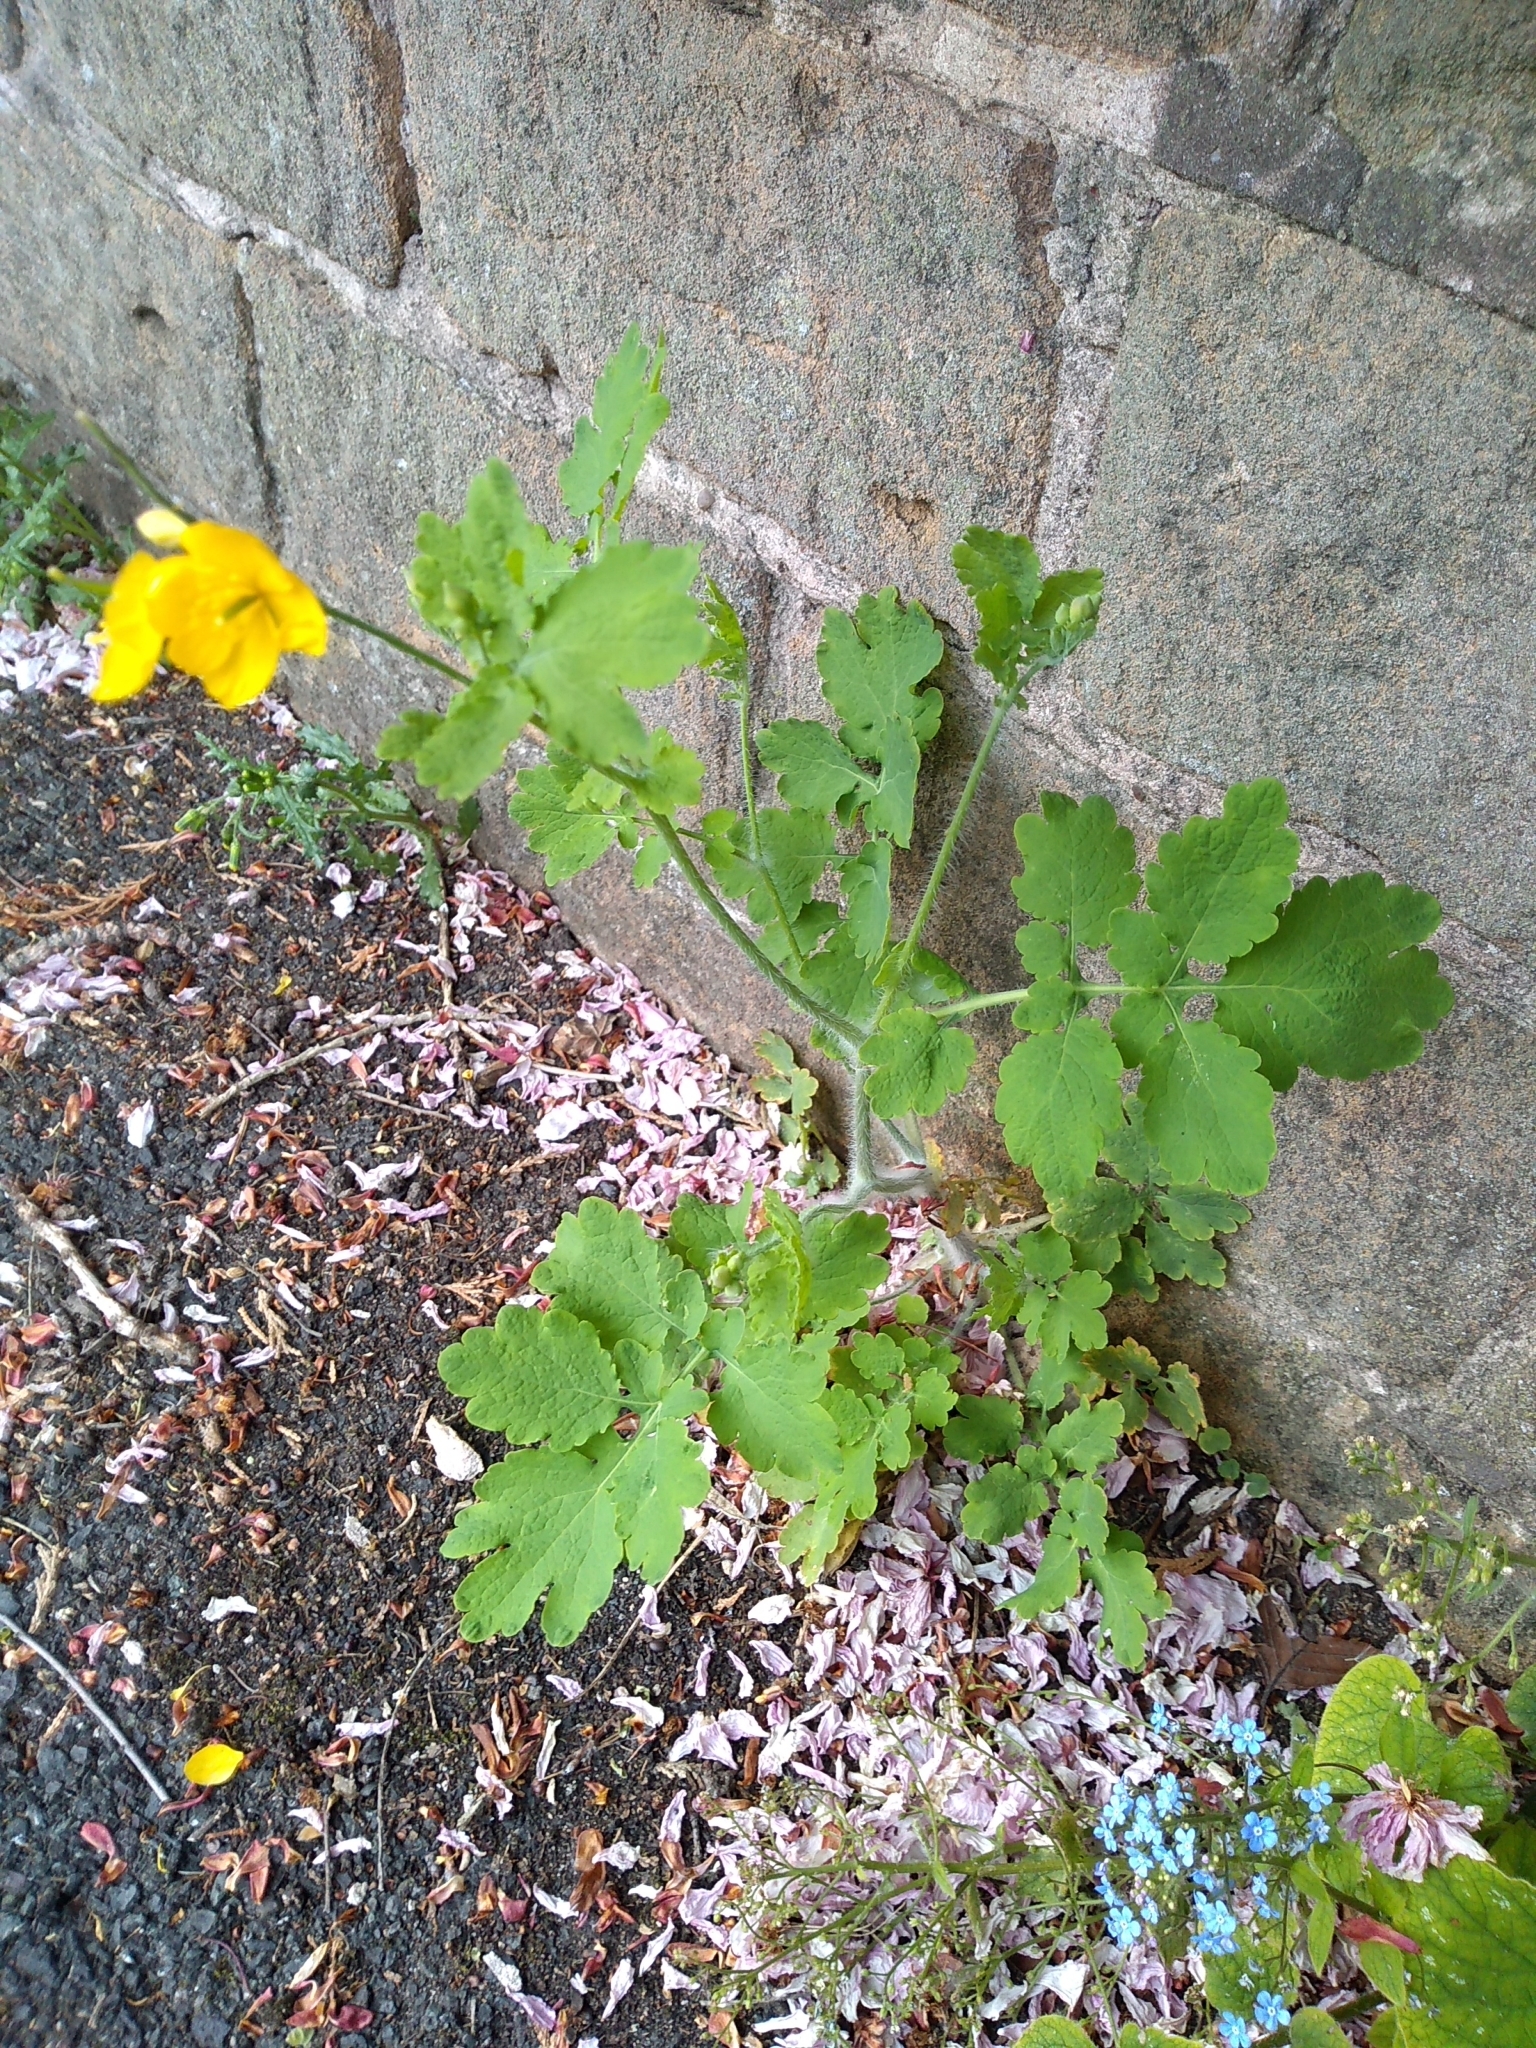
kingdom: Plantae
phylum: Tracheophyta
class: Magnoliopsida
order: Ranunculales
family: Papaveraceae
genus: Chelidonium
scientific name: Chelidonium majus
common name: Greater celandine
